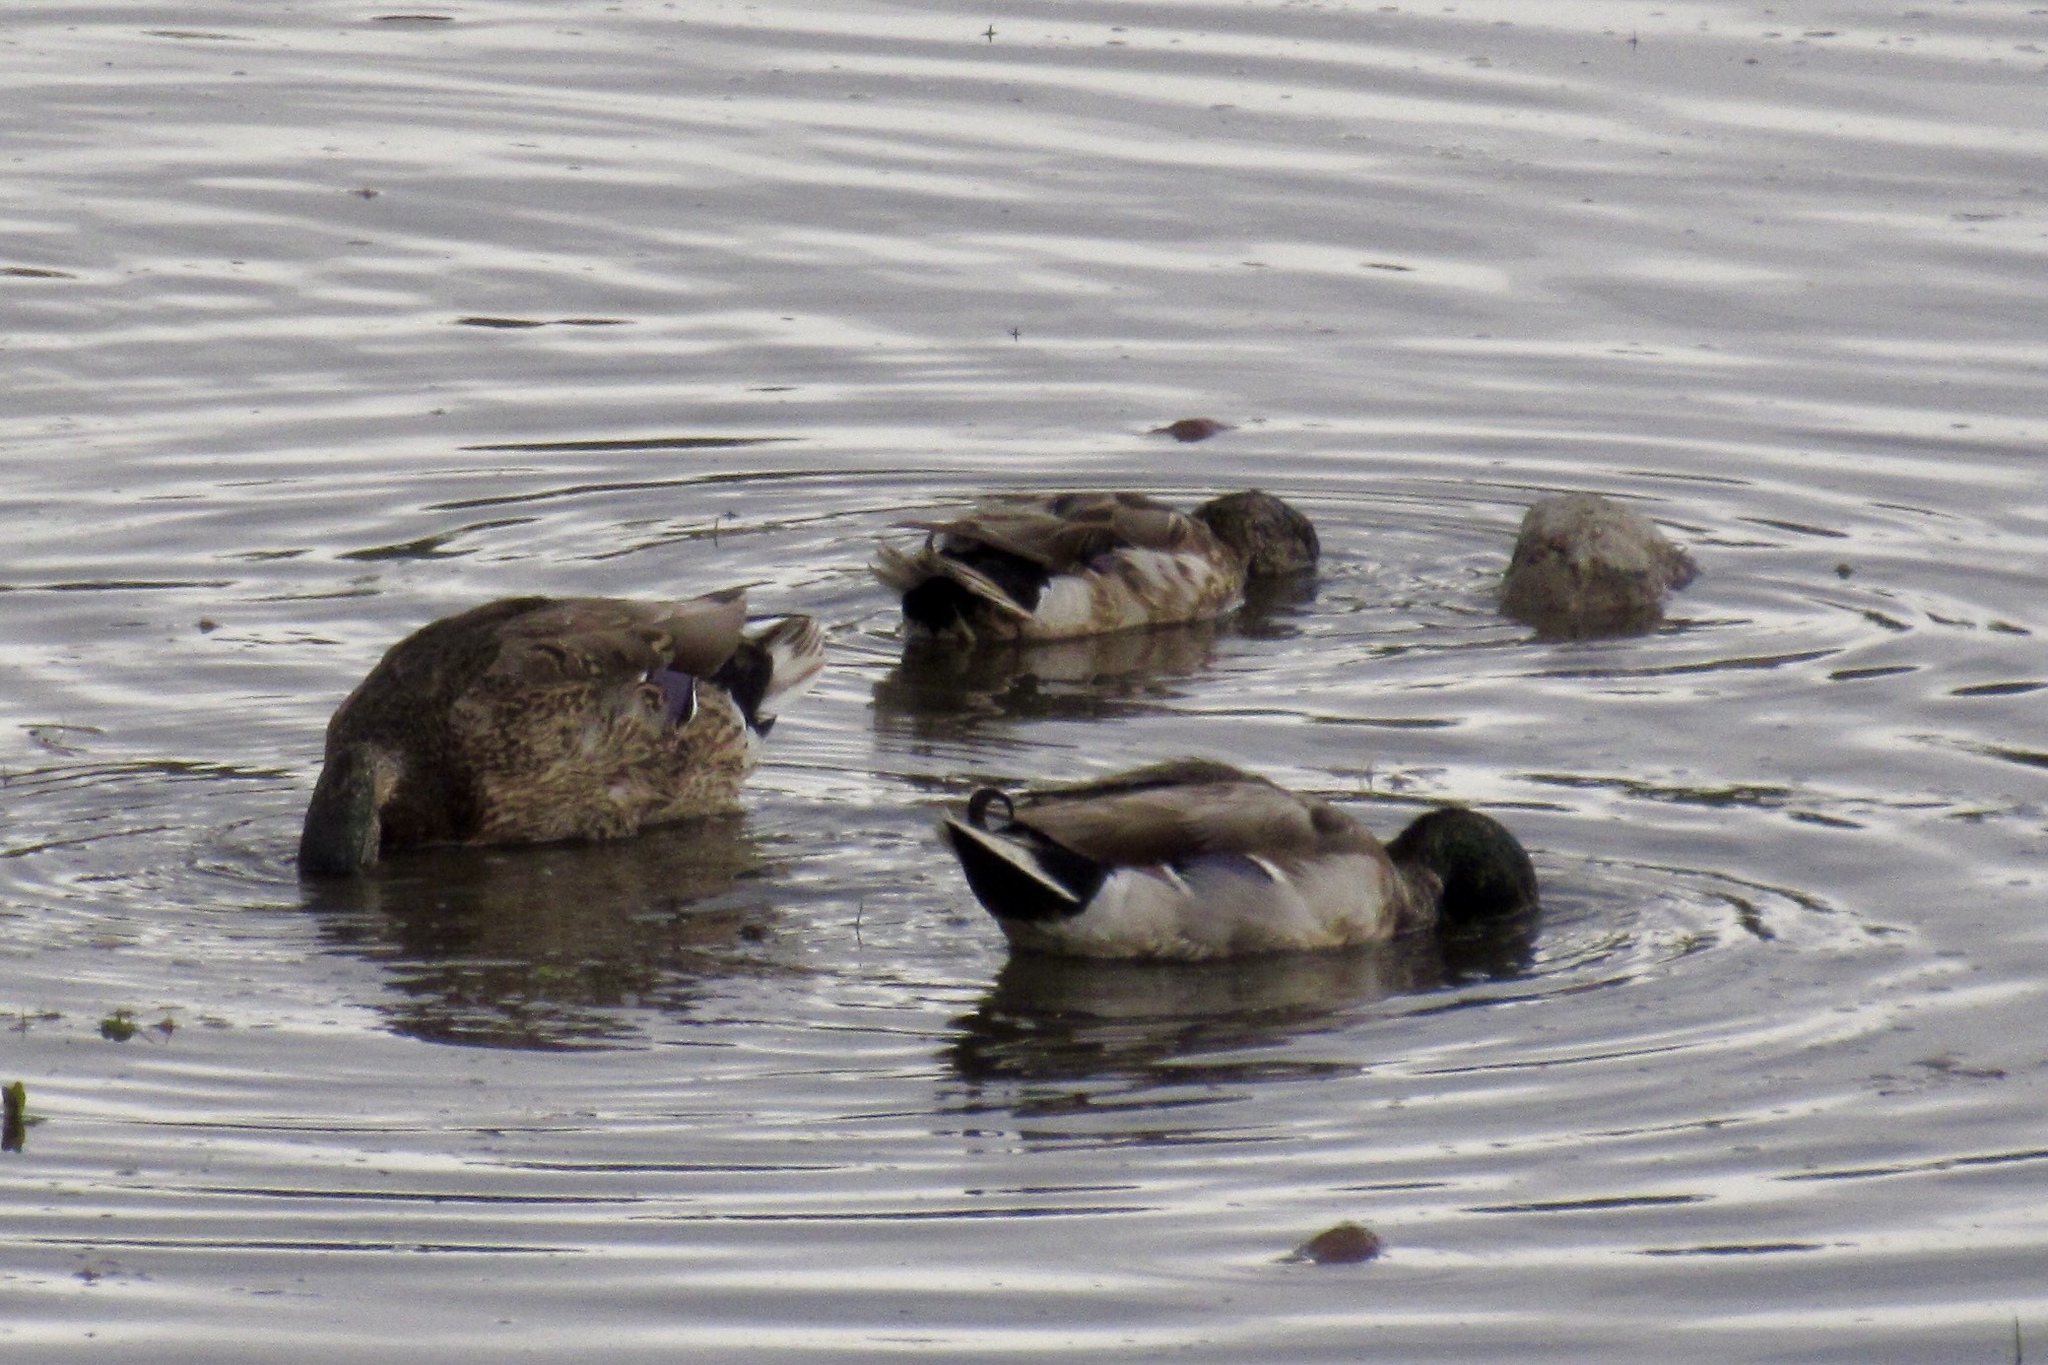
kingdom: Animalia
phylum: Chordata
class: Aves
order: Anseriformes
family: Anatidae
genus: Anas
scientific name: Anas platyrhynchos
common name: Mallard
